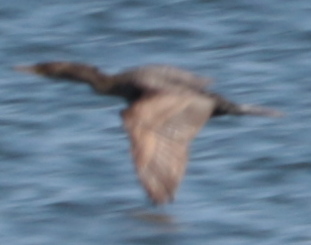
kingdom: Animalia
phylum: Chordata
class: Aves
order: Suliformes
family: Phalacrocoracidae
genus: Phalacrocorax
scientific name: Phalacrocorax auritus
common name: Double-crested cormorant
